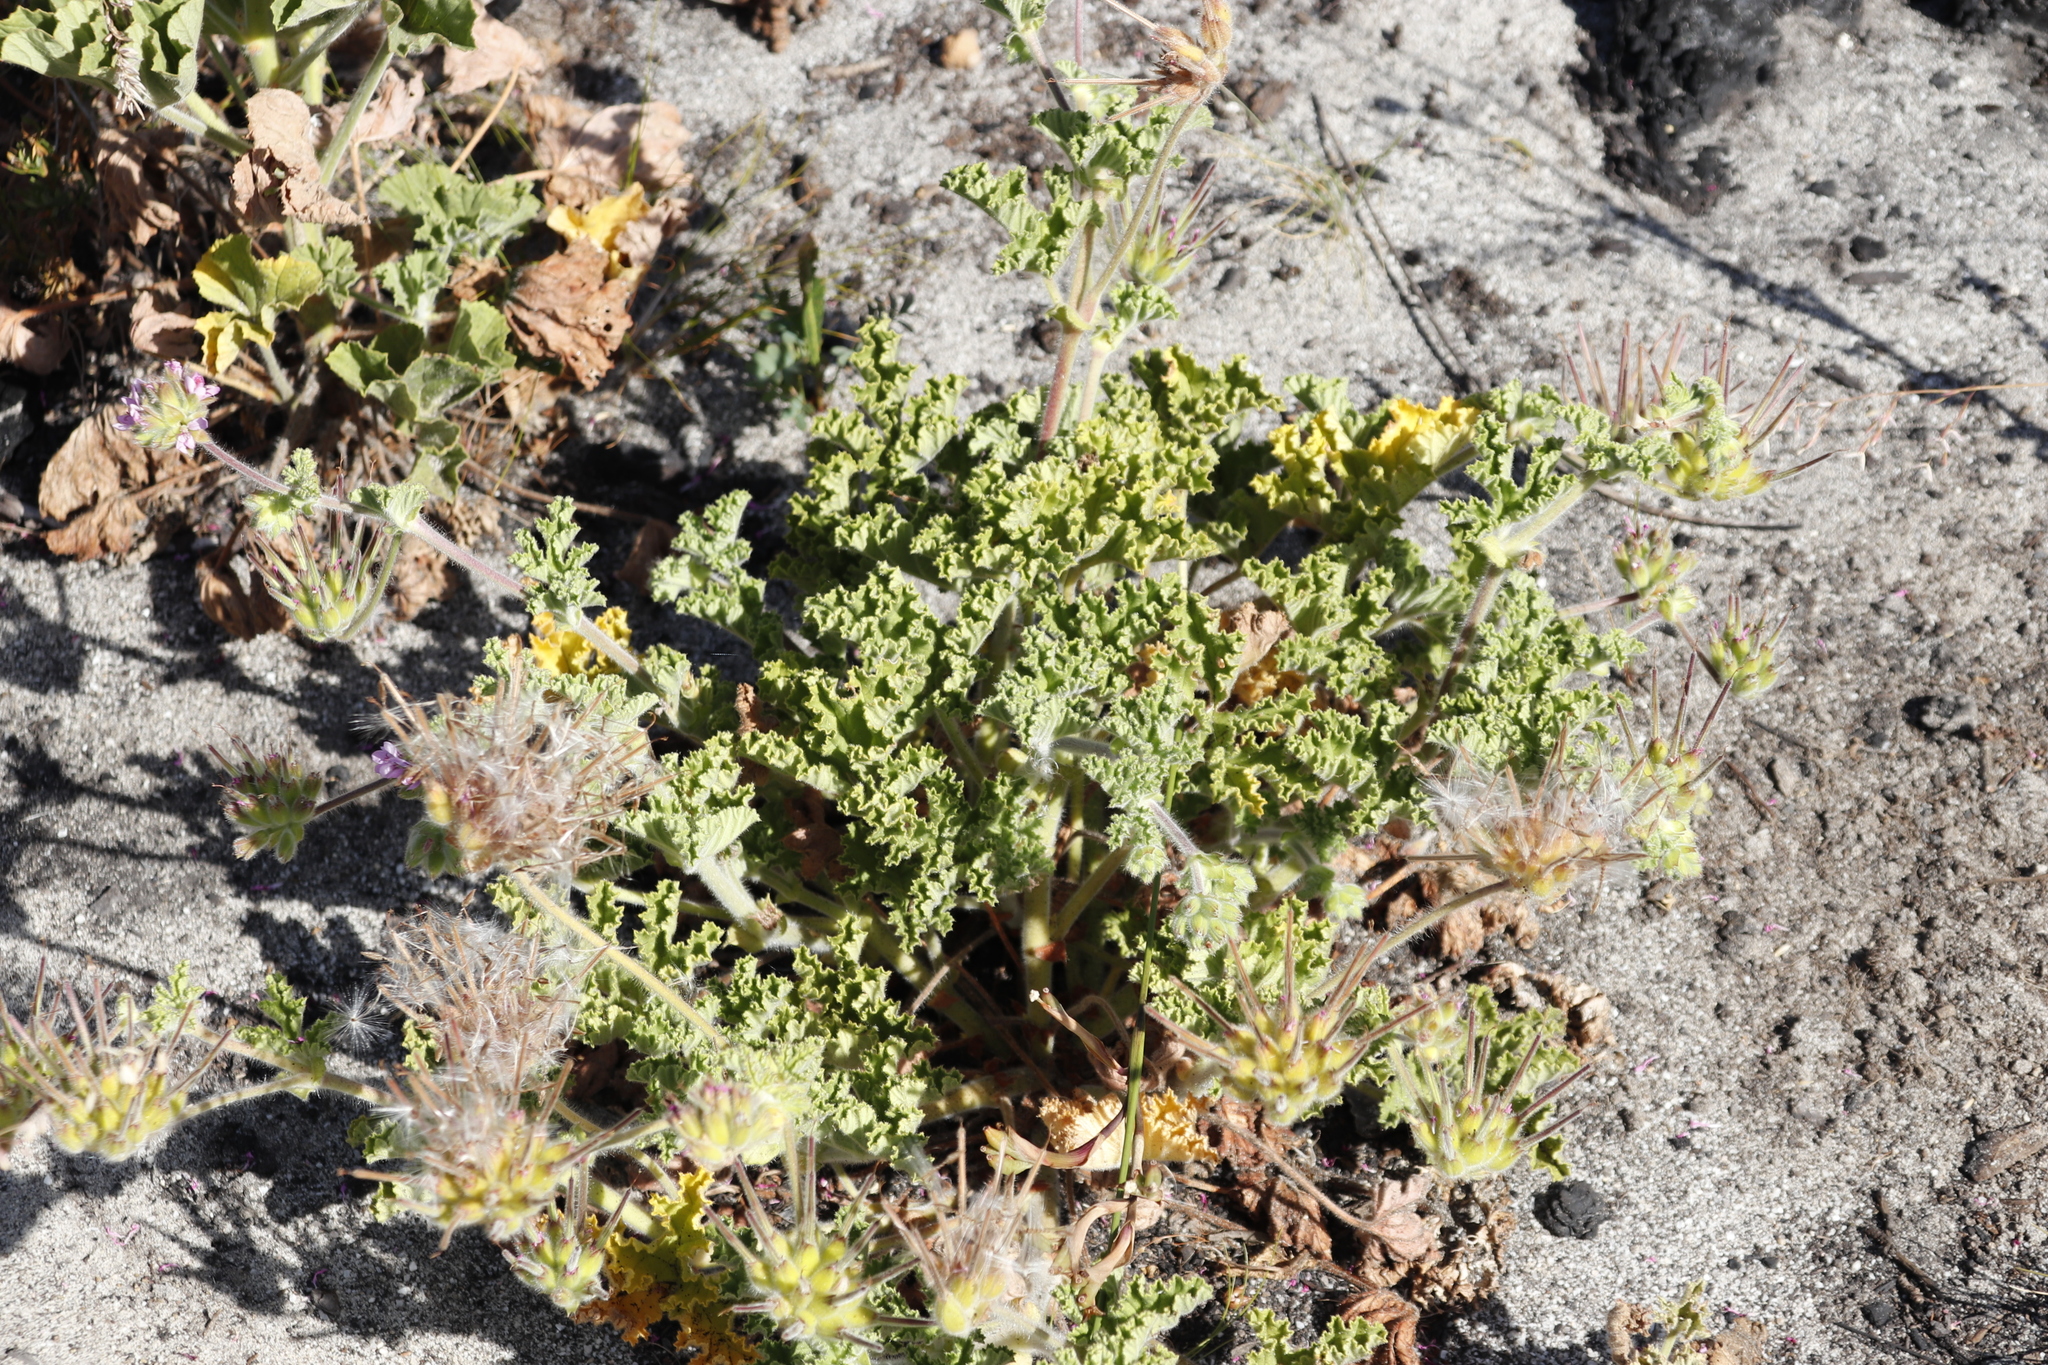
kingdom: Plantae
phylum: Tracheophyta
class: Magnoliopsida
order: Geraniales
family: Geraniaceae
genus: Pelargonium
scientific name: Pelargonium capitatum
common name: Rose scented geranium
